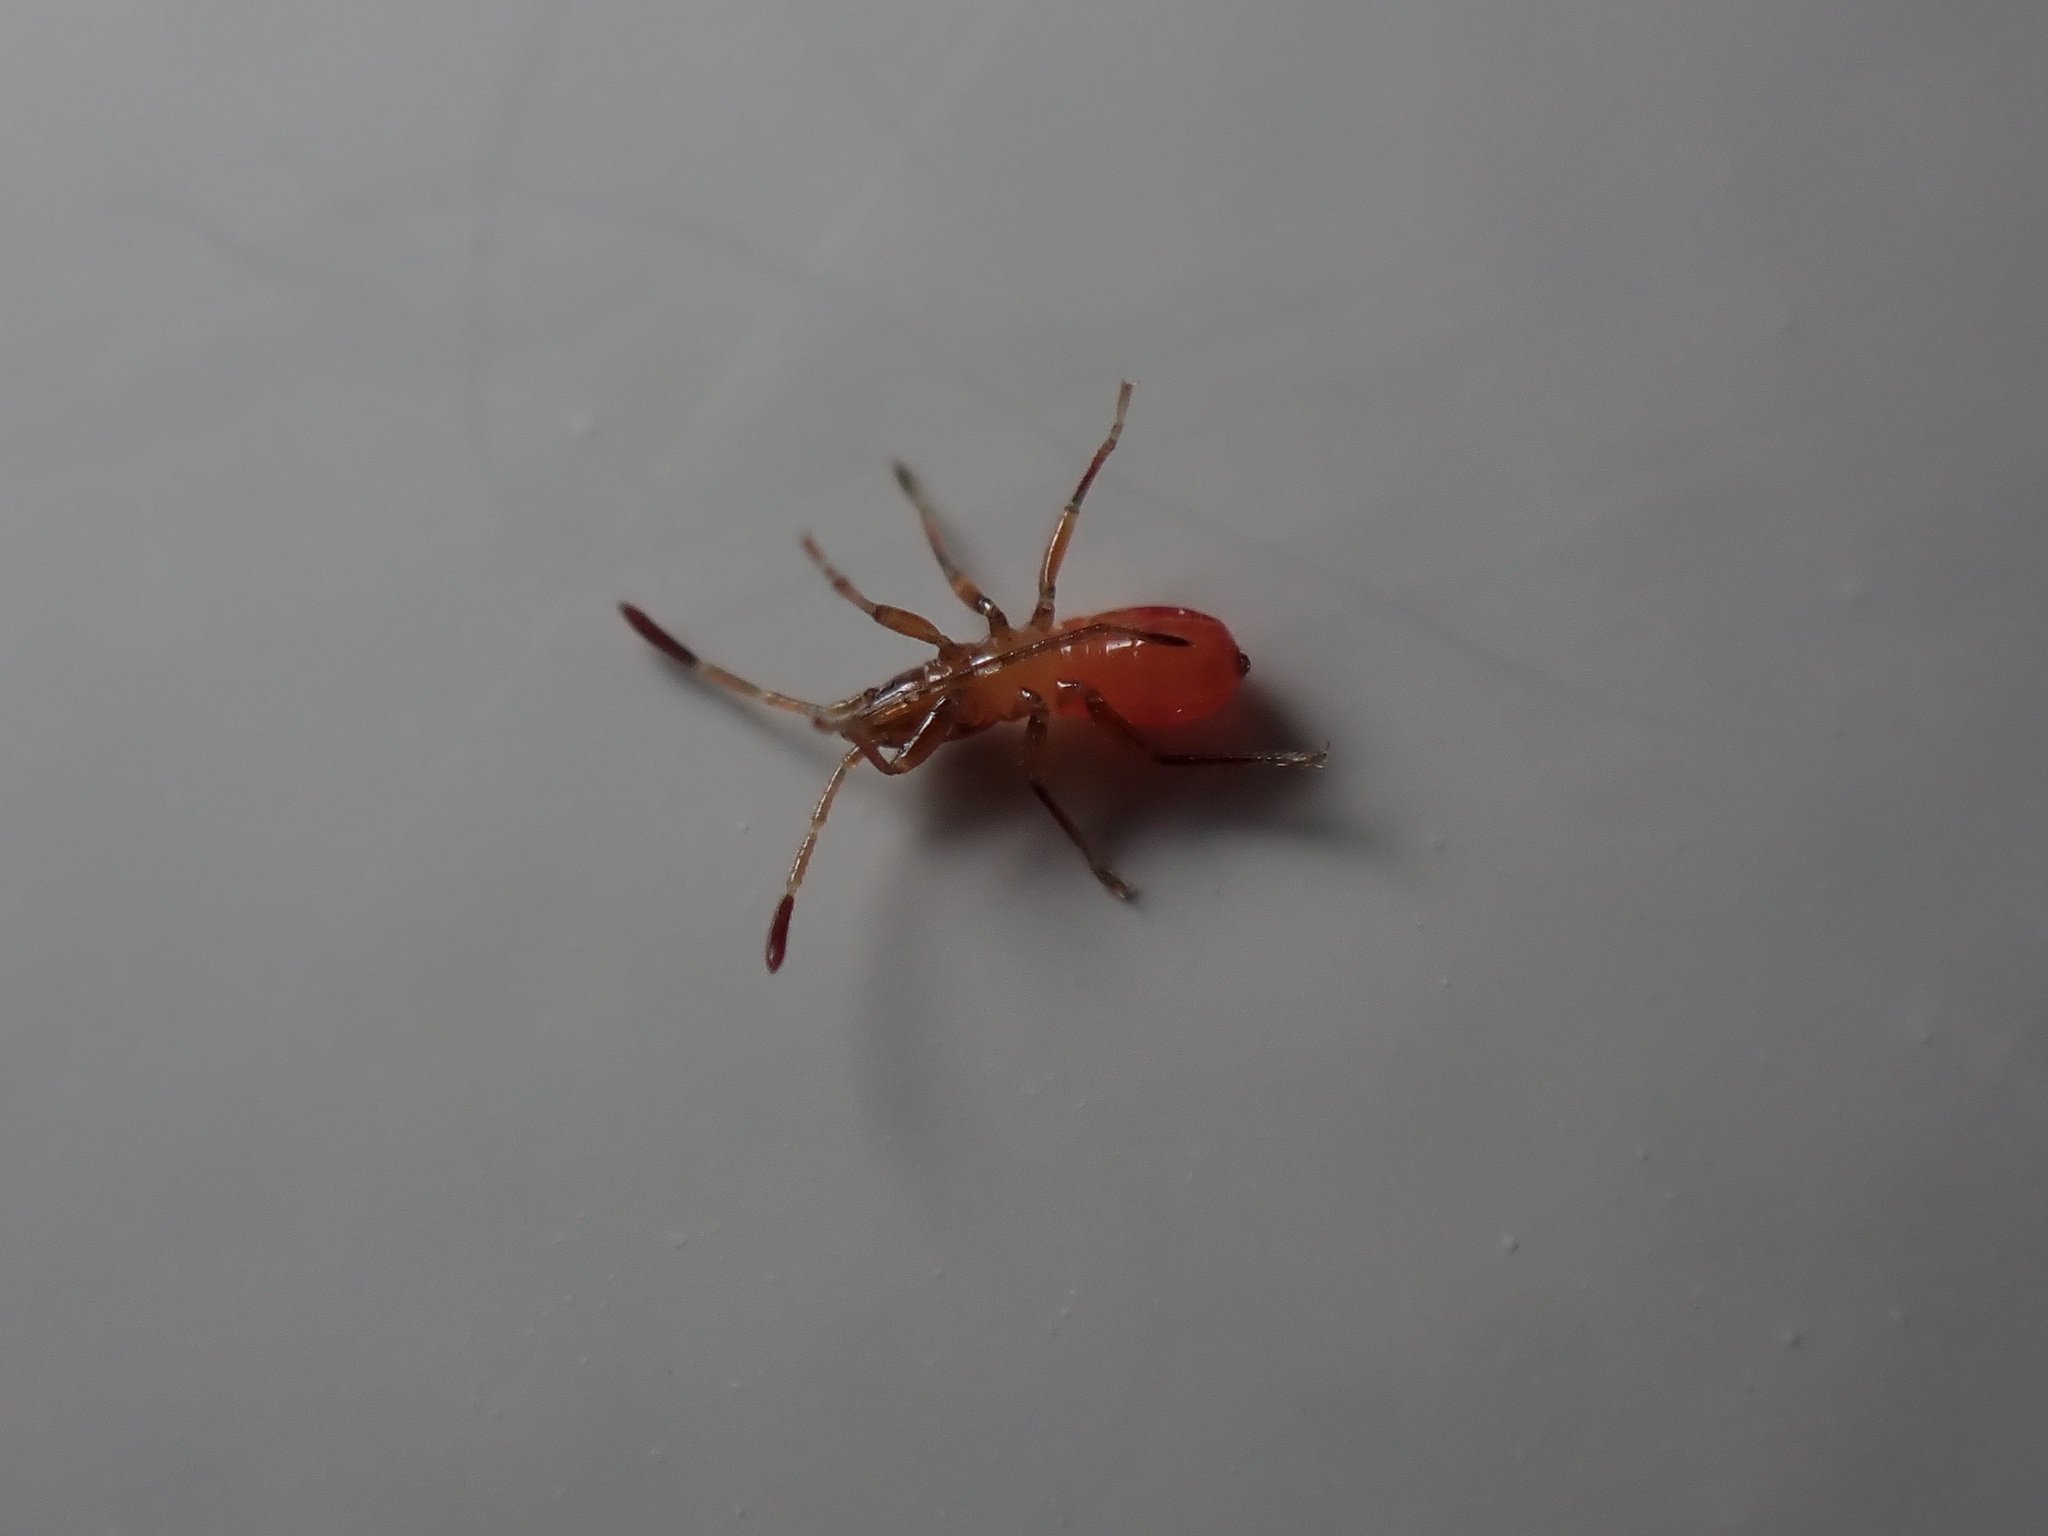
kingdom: Animalia
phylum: Arthropoda
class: Insecta
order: Hemiptera
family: Oxycarenidae
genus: Oxycarenus
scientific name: Oxycarenus lavaterae
